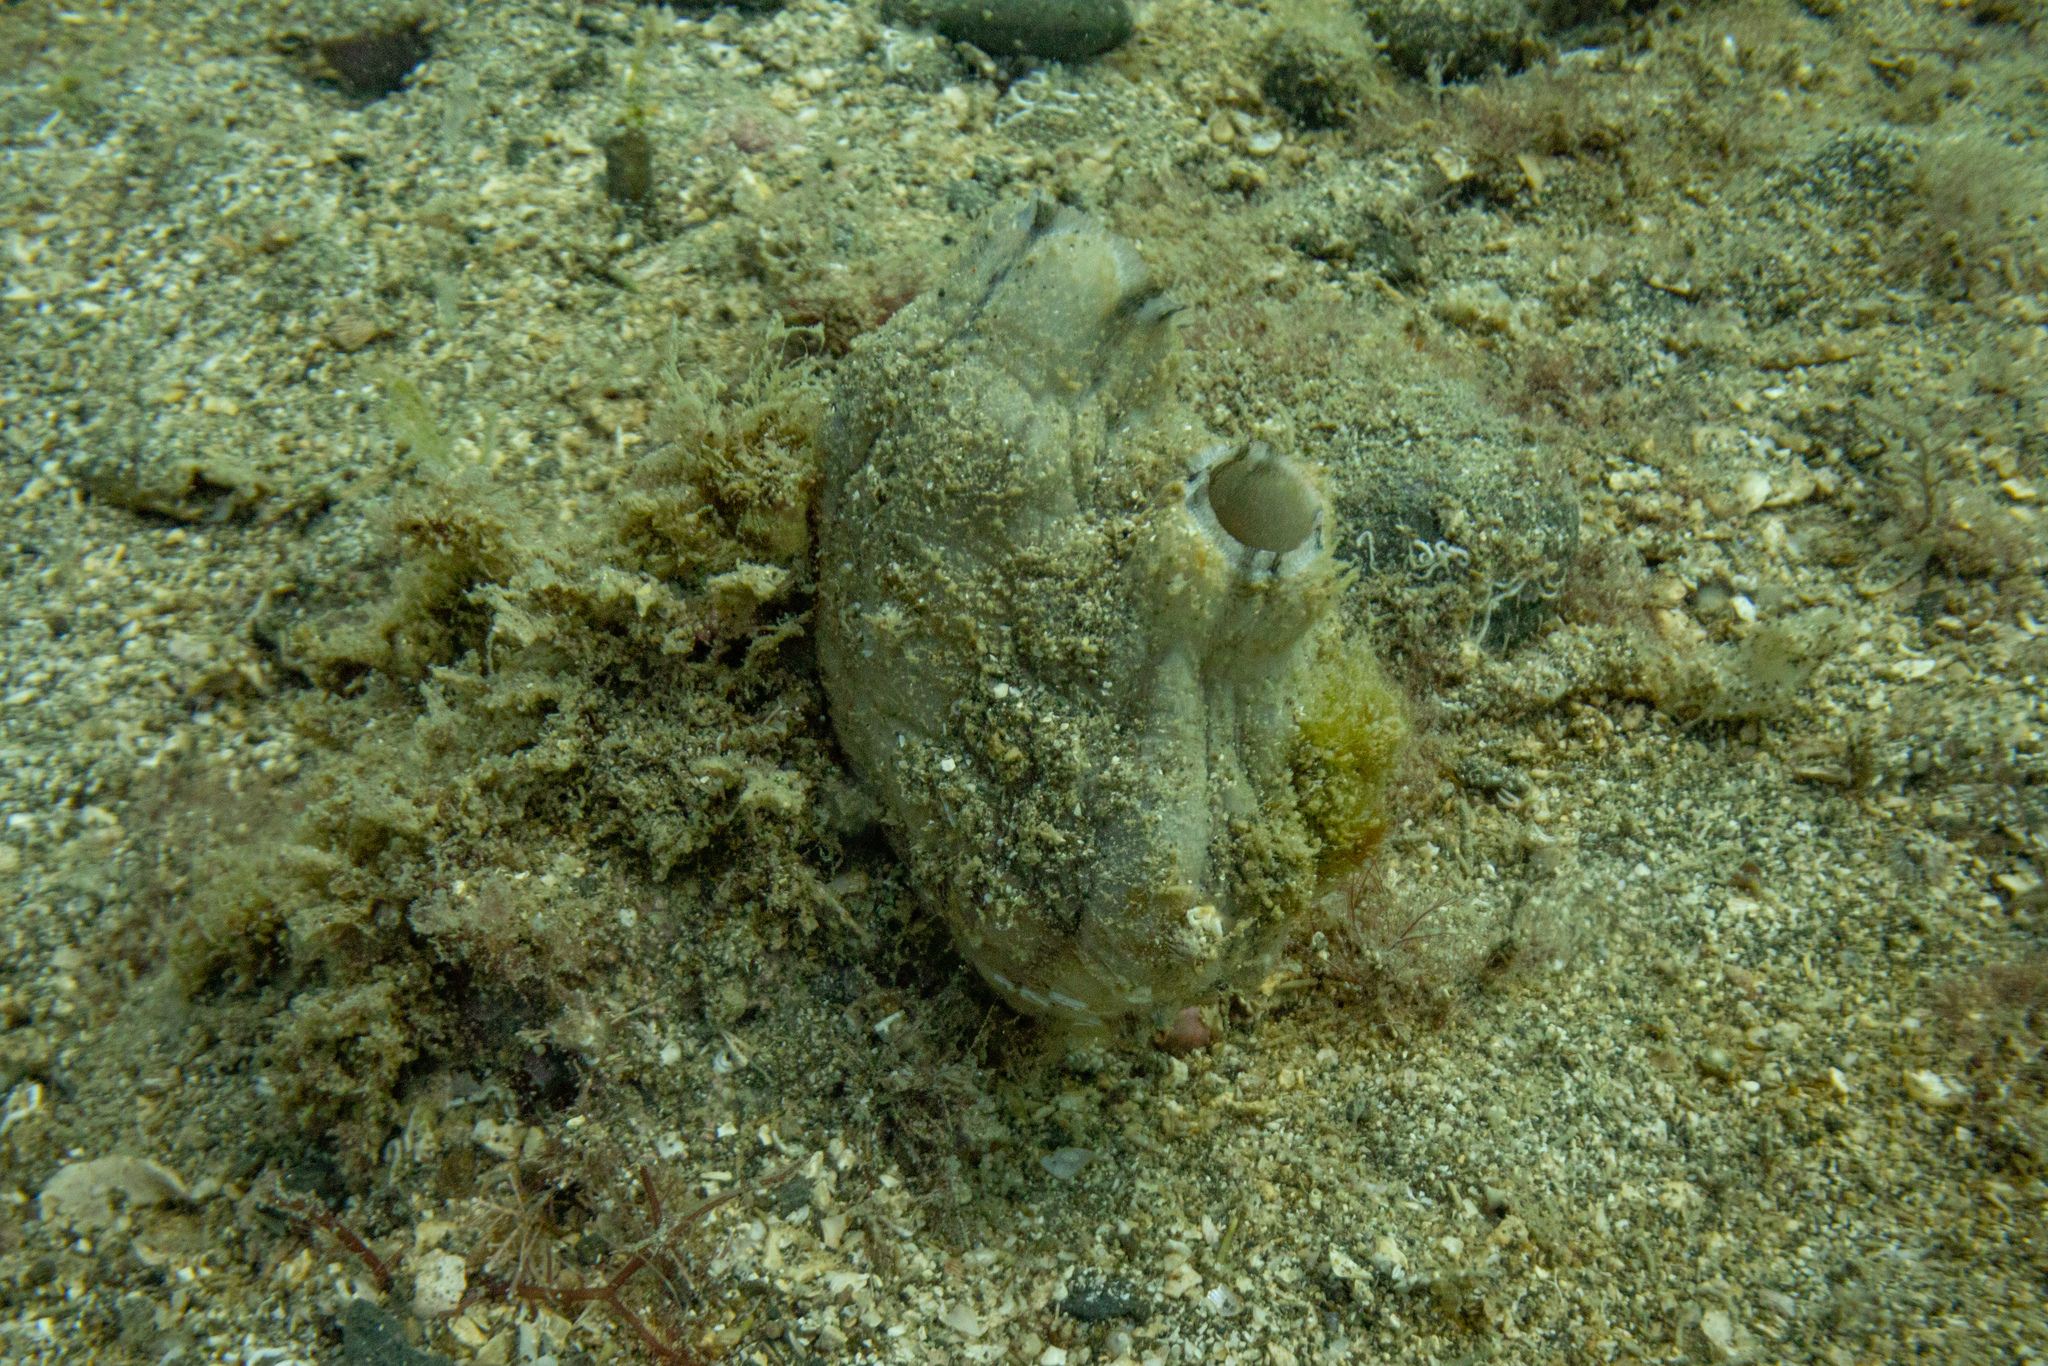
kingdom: Animalia
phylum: Chordata
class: Ascidiacea
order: Stolidobranchia
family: Styelidae
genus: Styela
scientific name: Styela plicata
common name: Pleated tunicate
